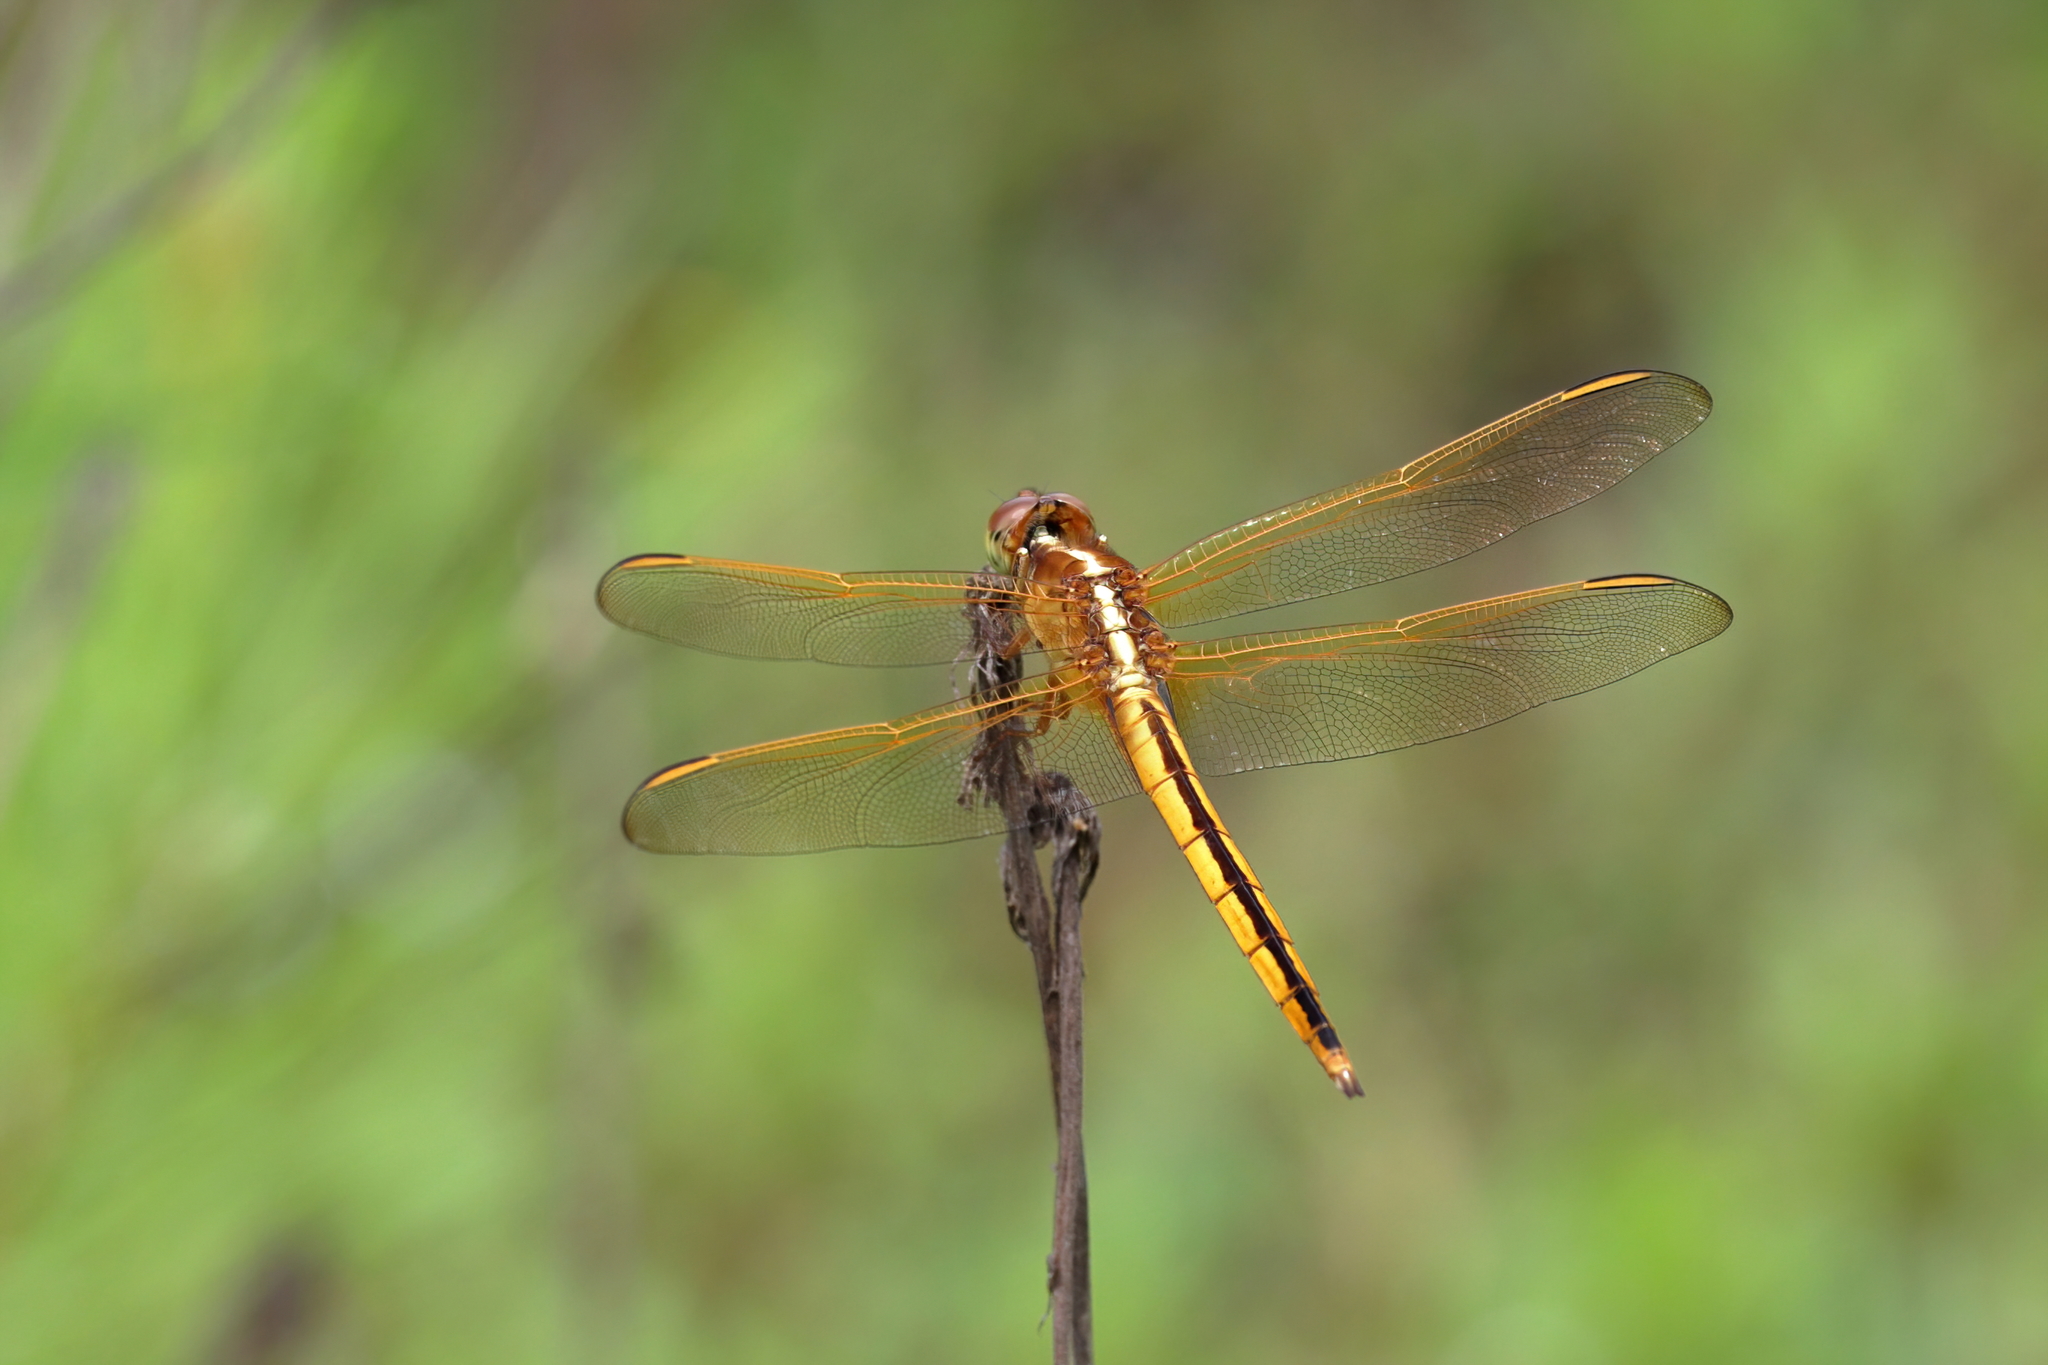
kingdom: Animalia
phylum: Arthropoda
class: Insecta
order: Odonata
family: Libellulidae
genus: Libellula
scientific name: Libellula needhami
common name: Needham's skimmer
